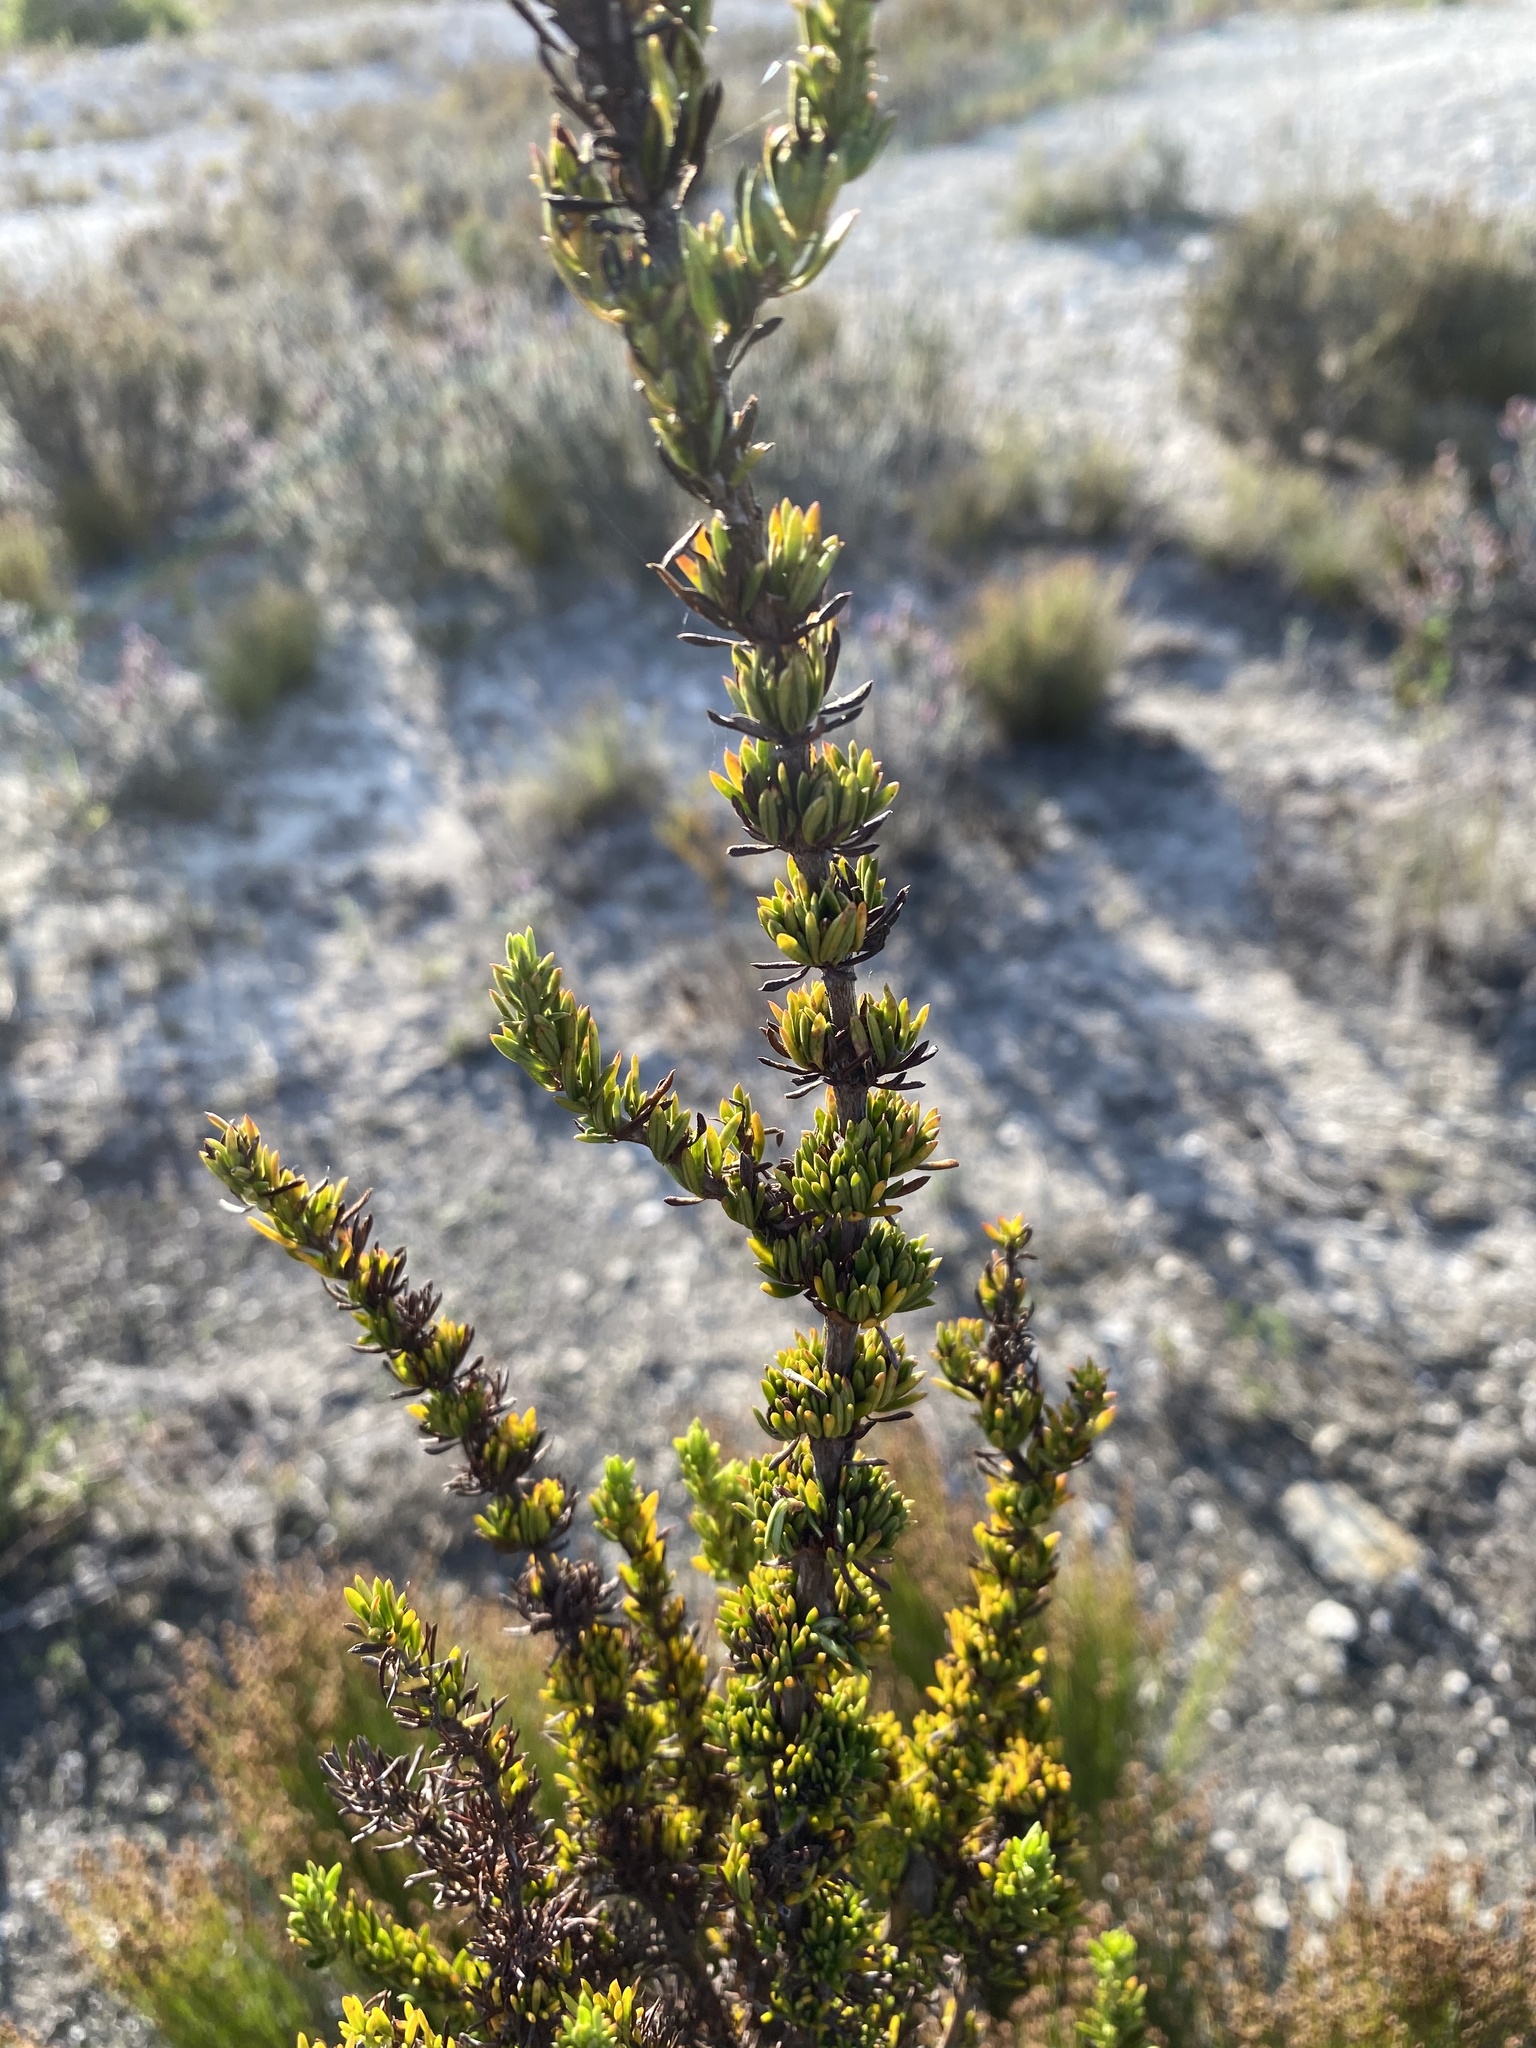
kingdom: Plantae
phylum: Tracheophyta
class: Magnoliopsida
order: Gentianales
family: Rubiaceae
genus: Anthospermum
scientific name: Anthospermum aethiopicum
